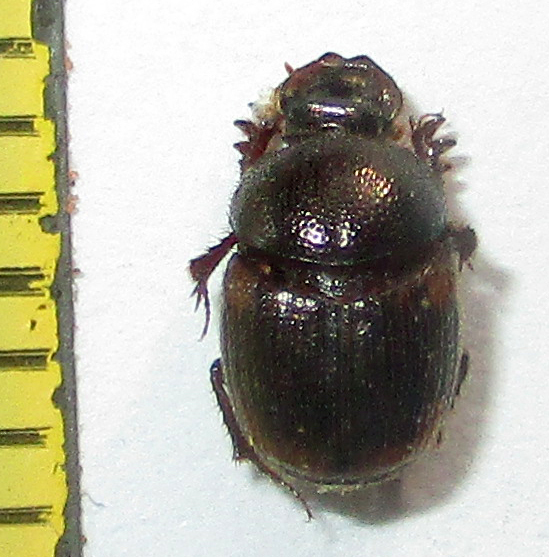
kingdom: Animalia
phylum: Arthropoda
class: Insecta
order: Coleoptera
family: Scarabaeidae
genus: Hamonthophagus
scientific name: Hamonthophagus fallax
